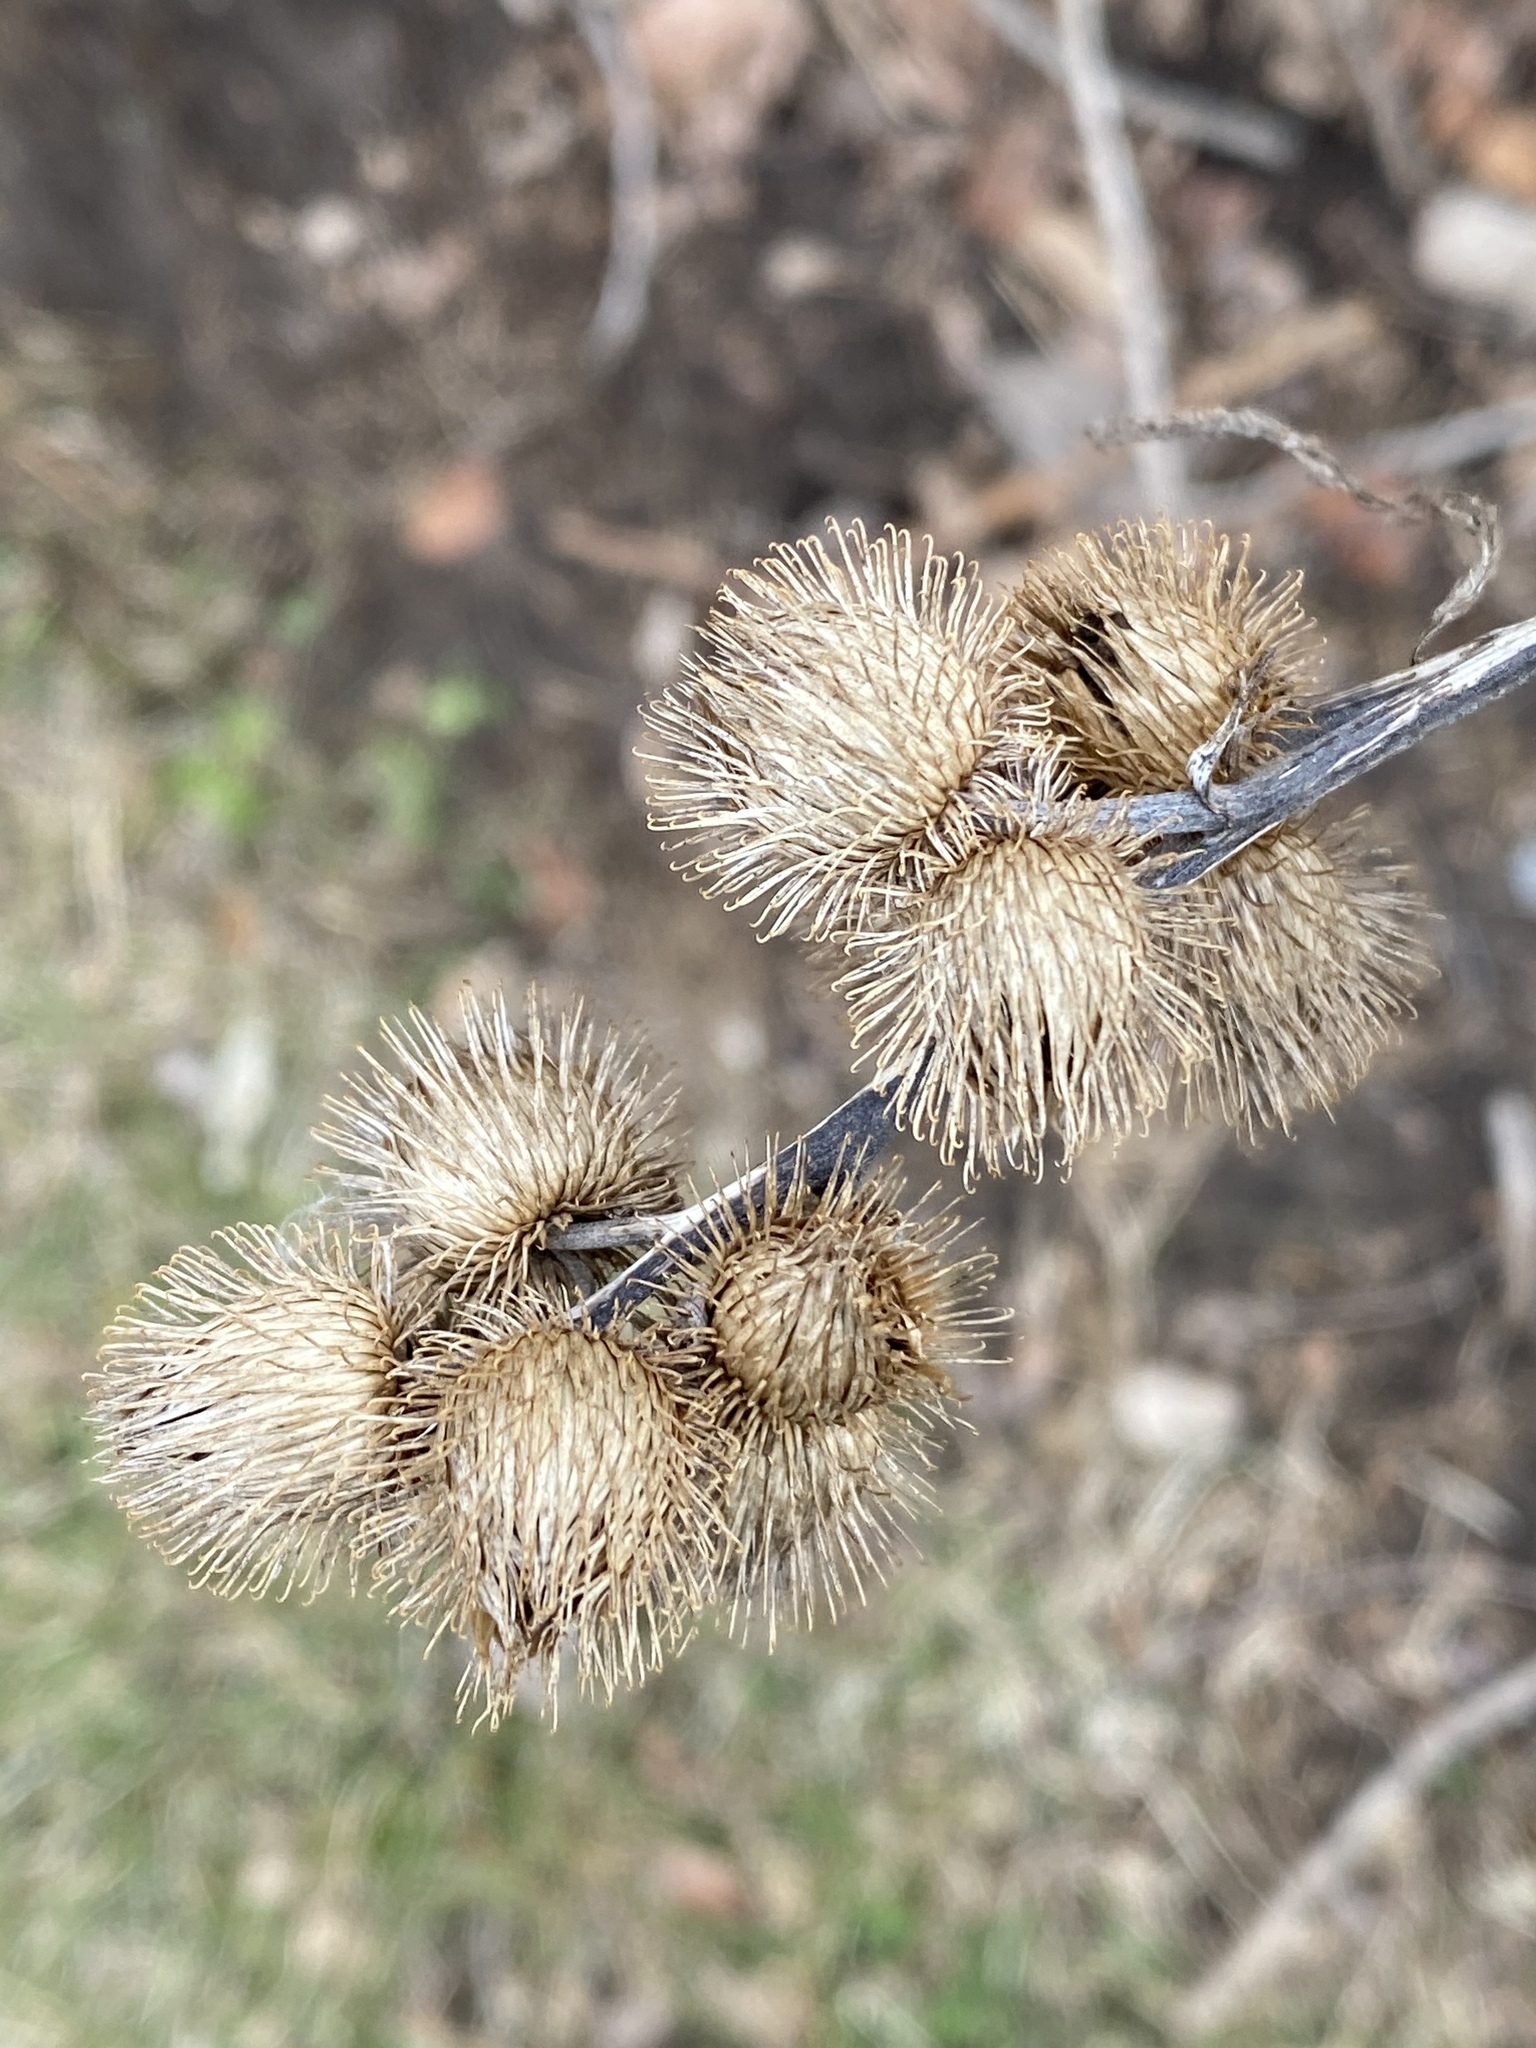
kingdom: Plantae
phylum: Tracheophyta
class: Magnoliopsida
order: Asterales
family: Asteraceae
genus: Arctium
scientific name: Arctium minus
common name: Lesser burdock
